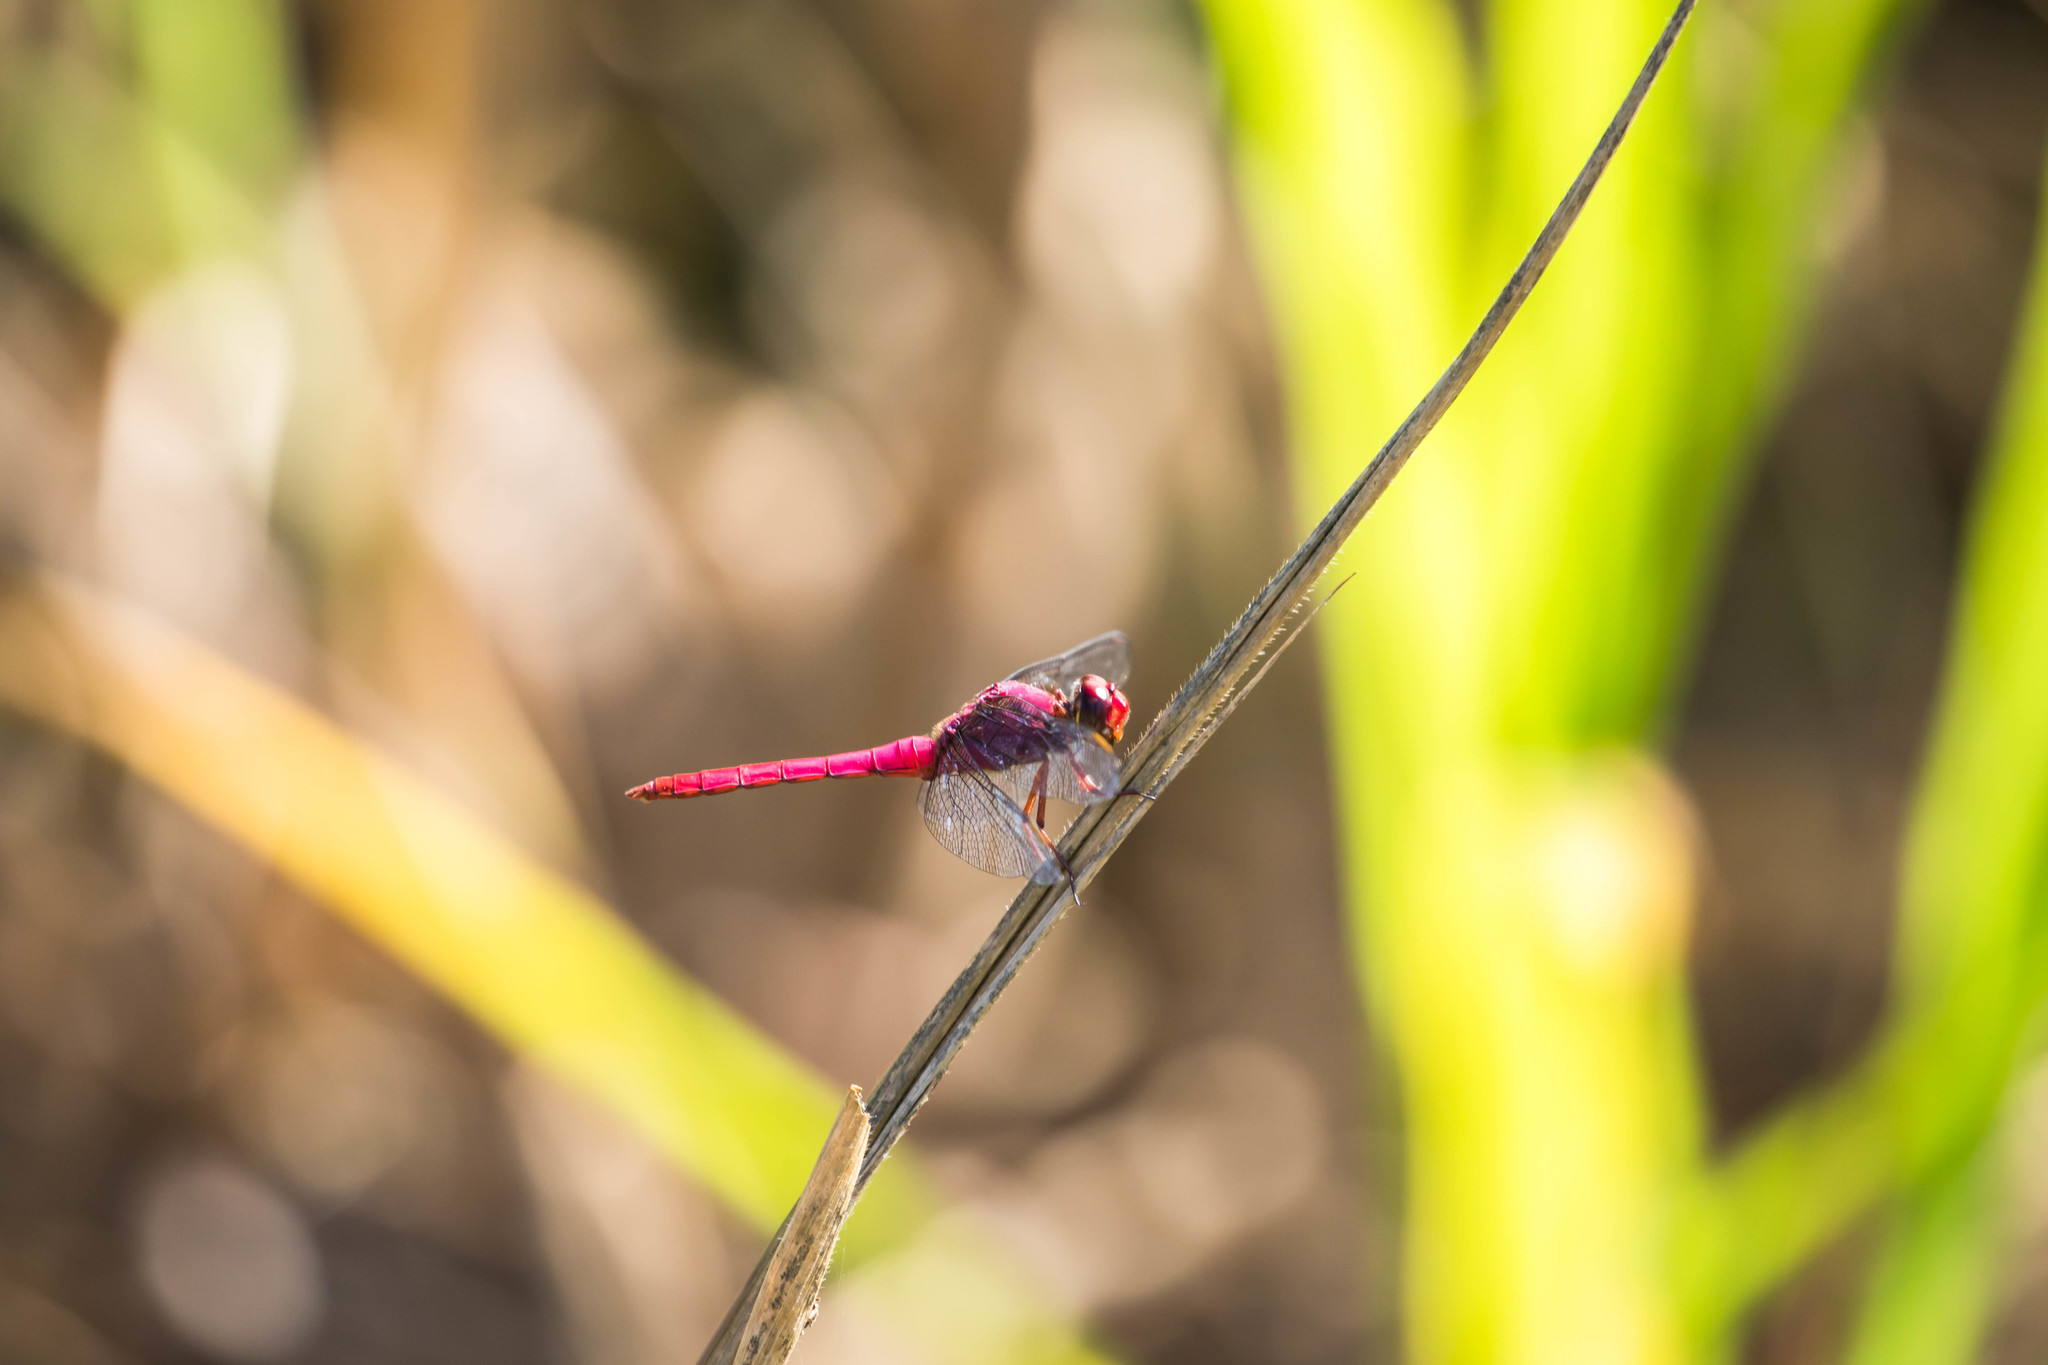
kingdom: Animalia
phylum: Arthropoda
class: Insecta
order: Odonata
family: Libellulidae
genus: Orthemis
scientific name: Orthemis discolor
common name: Carmine skimmer
